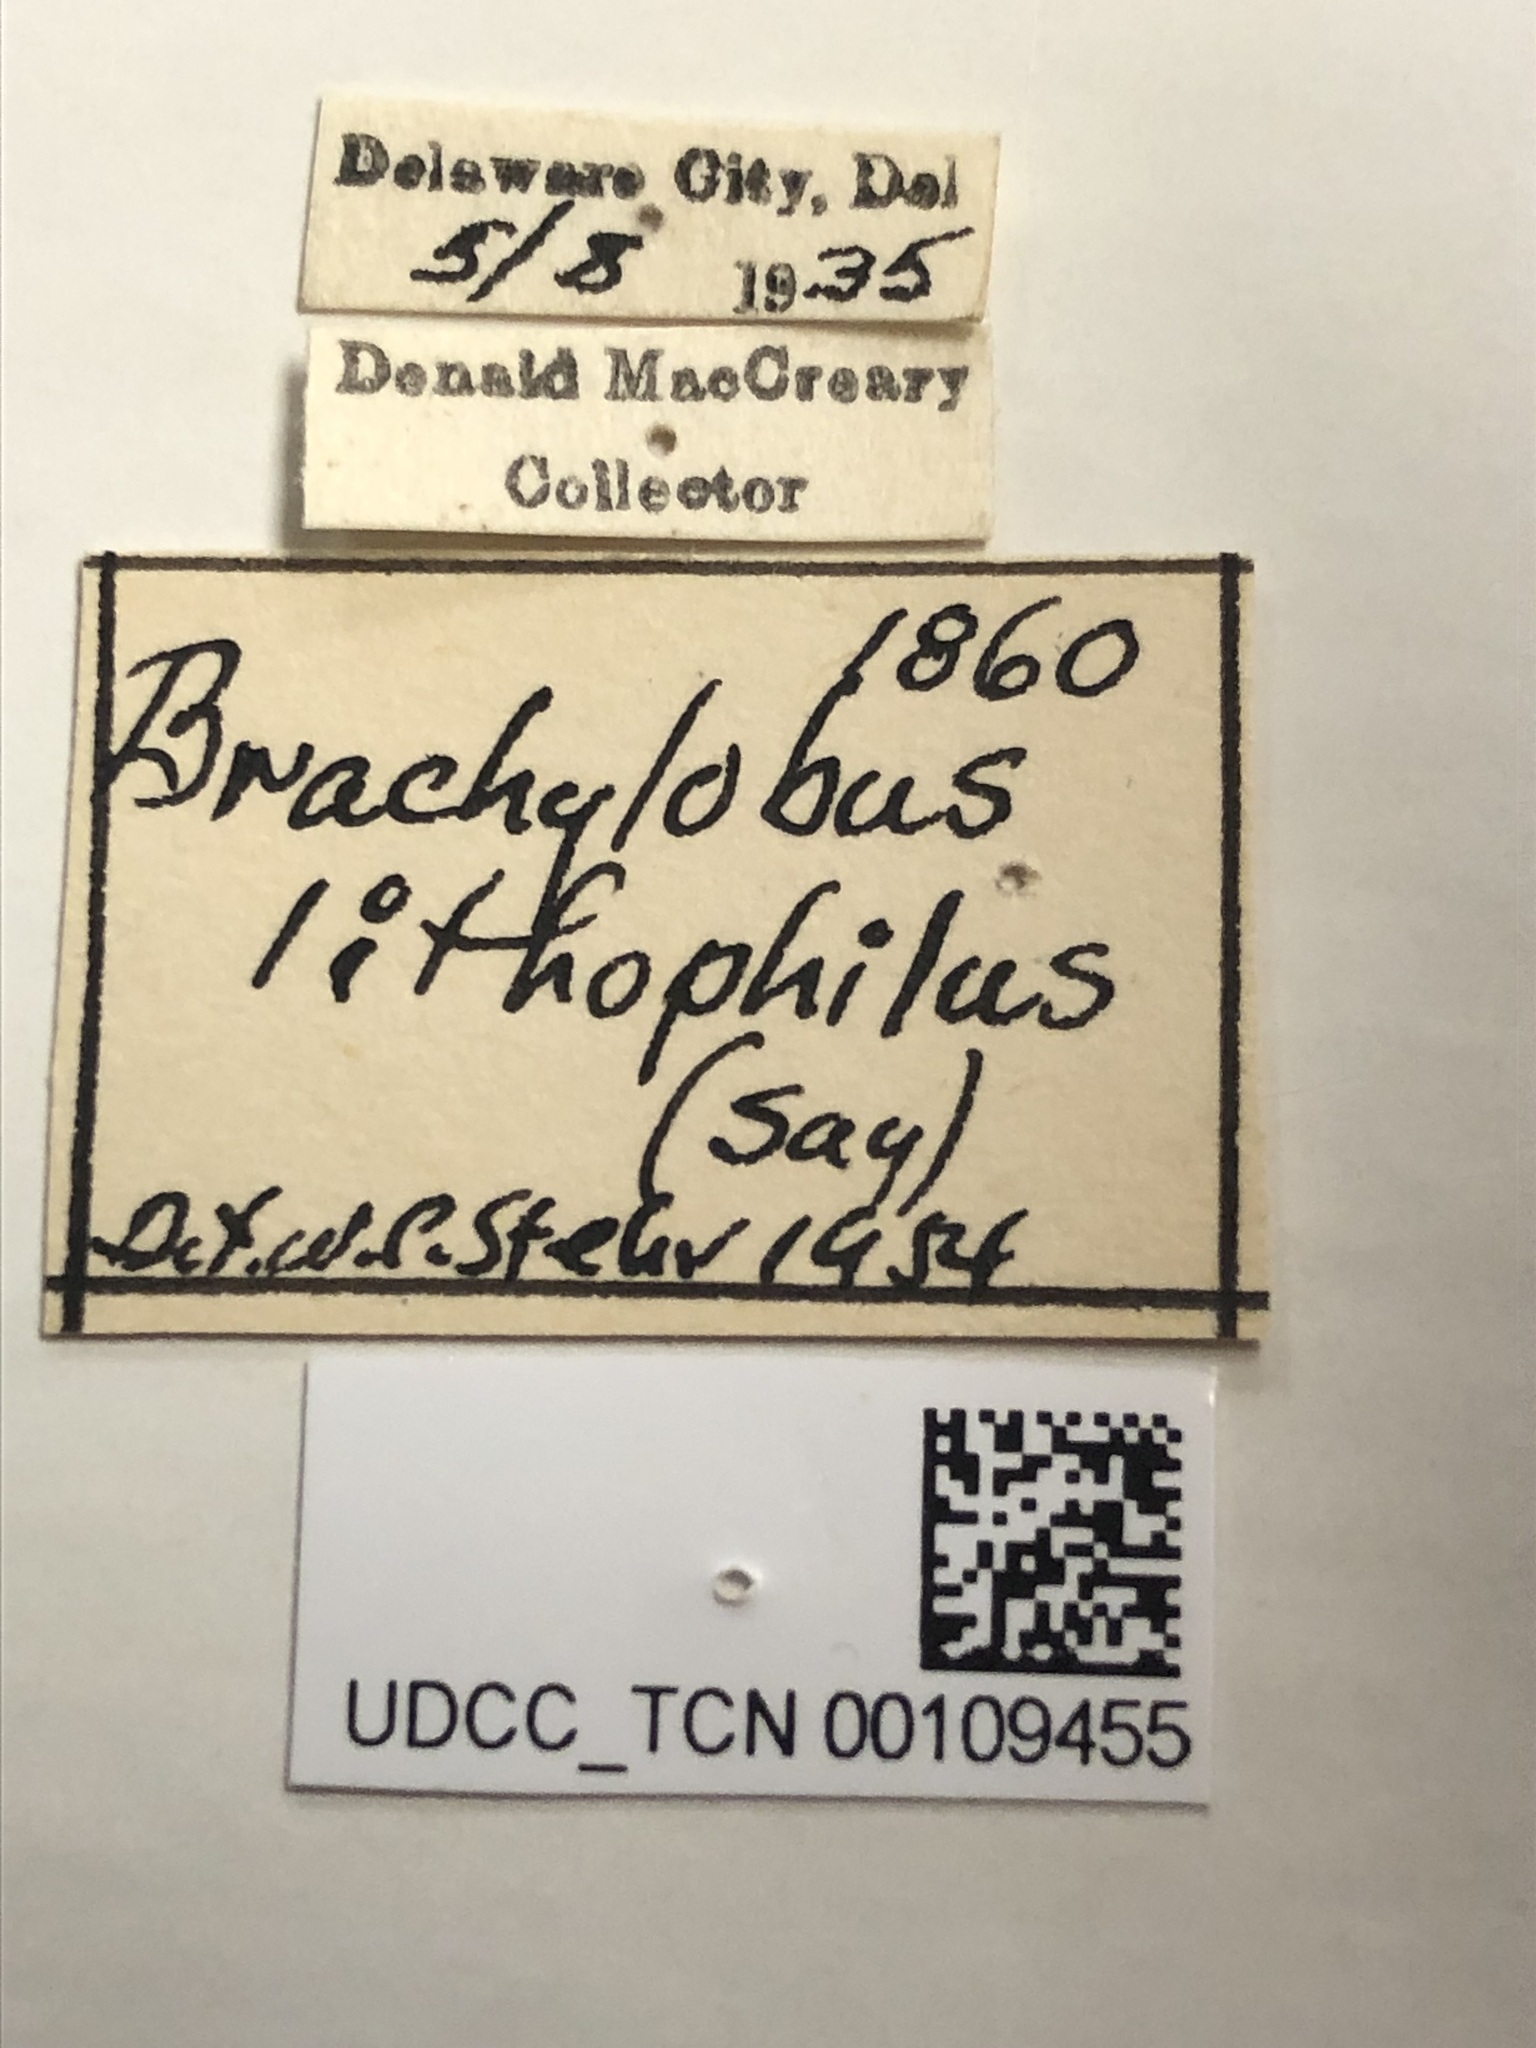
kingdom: Animalia
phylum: Arthropoda
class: Insecta
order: Coleoptera
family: Carabidae
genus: Chlaenius
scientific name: Chlaenius lithophilus
